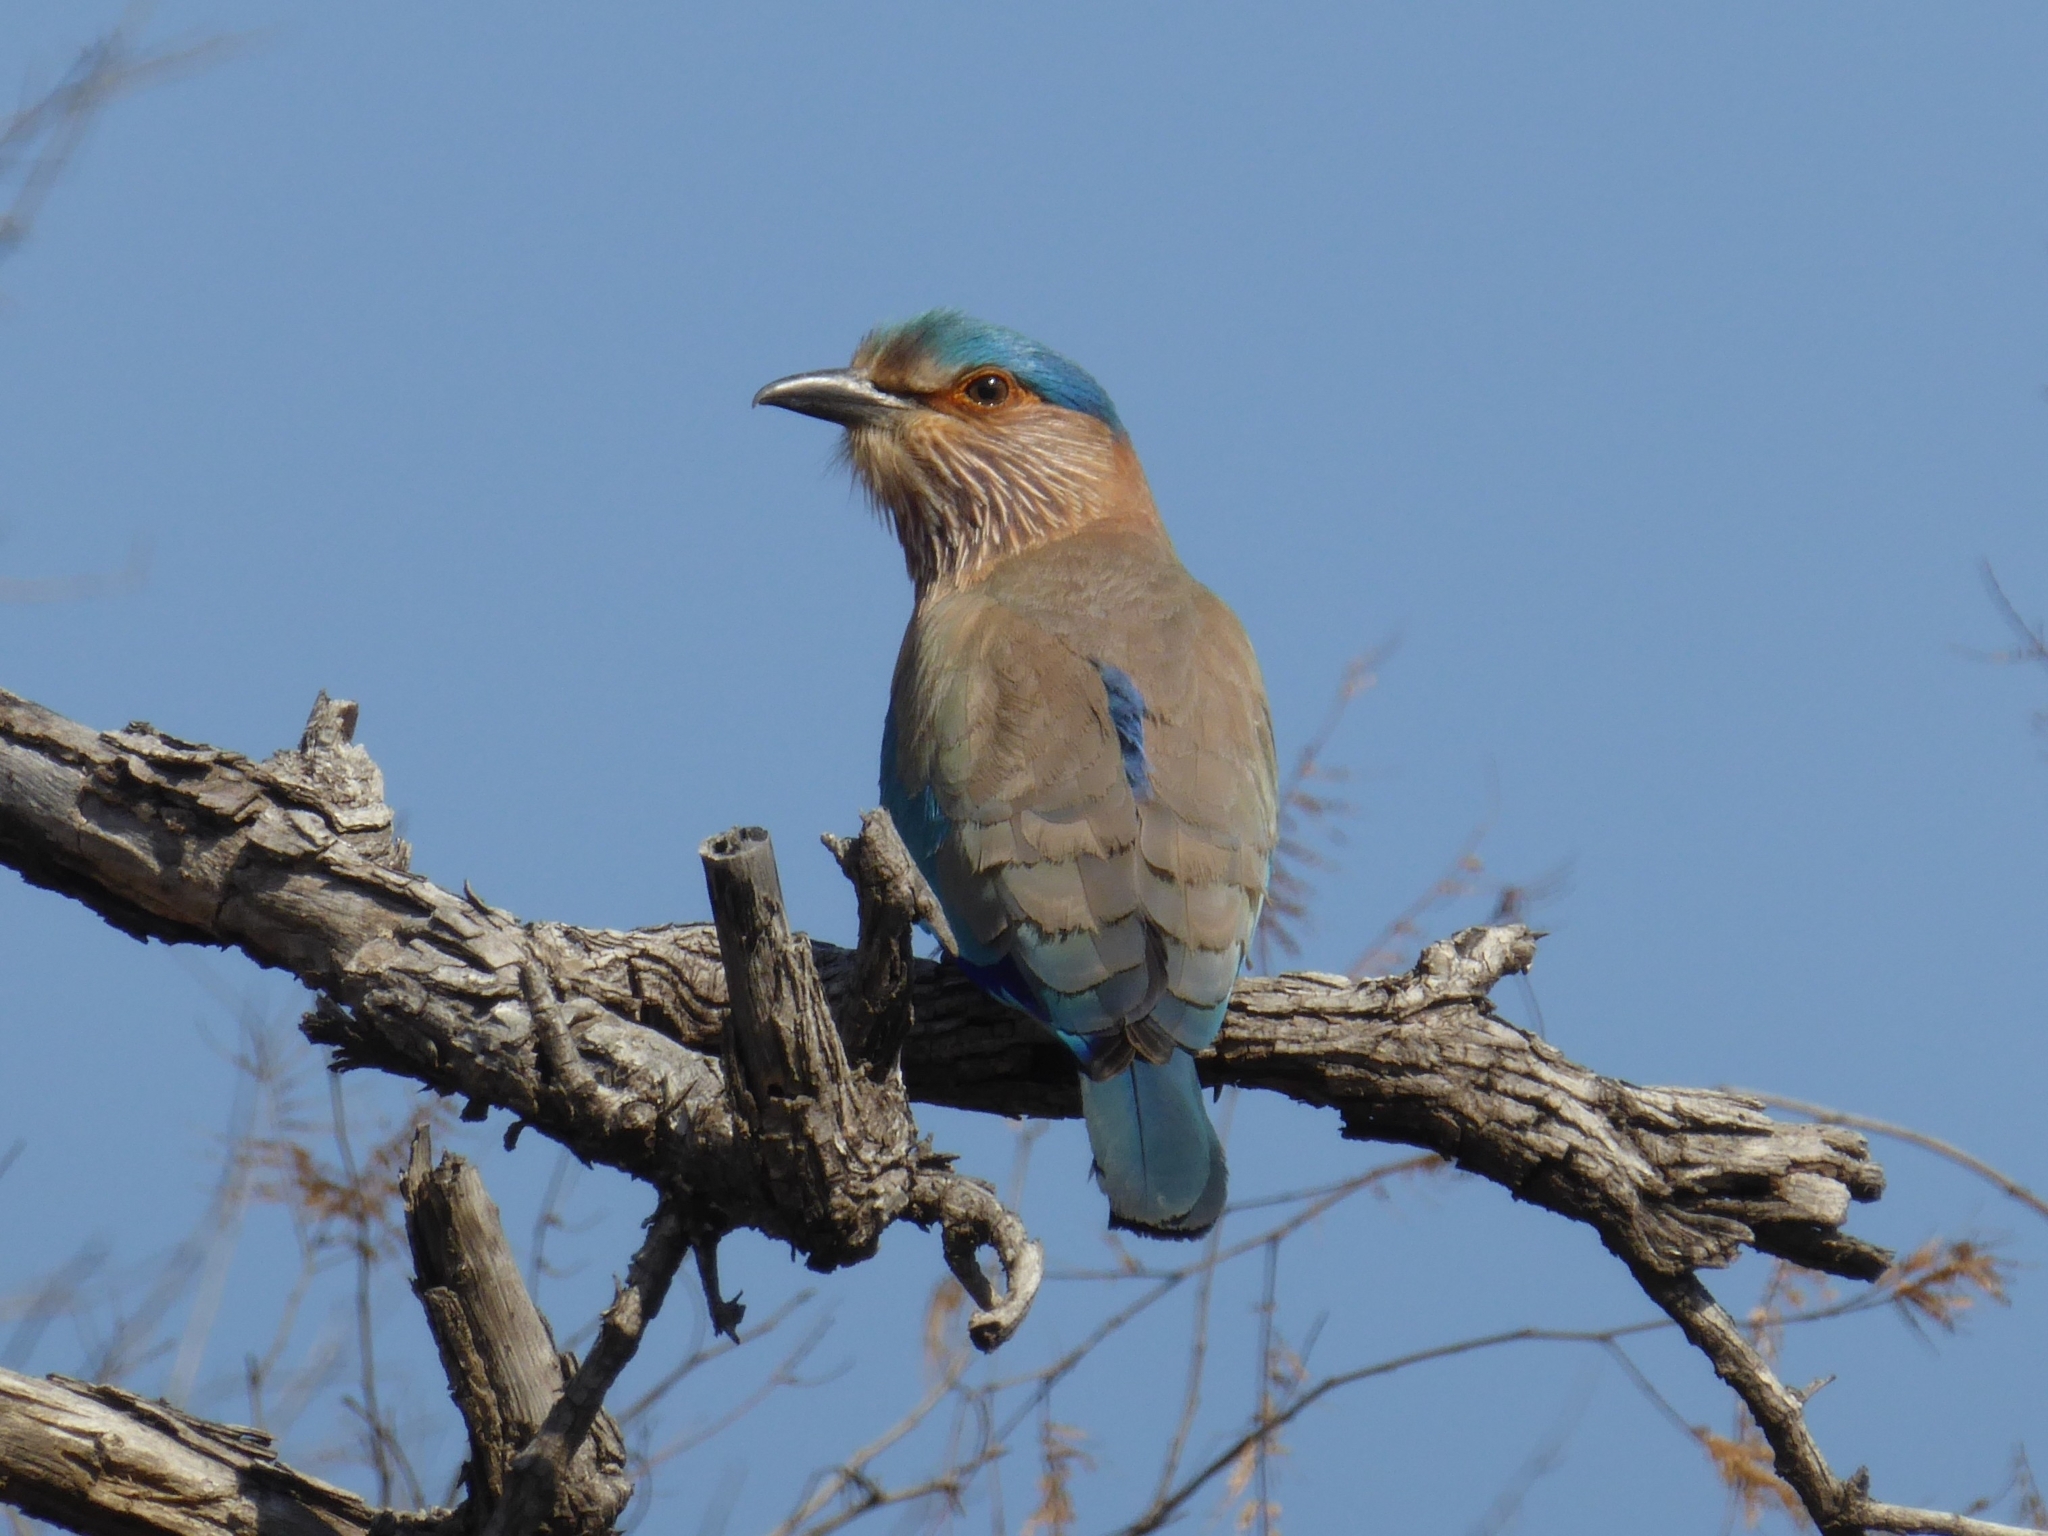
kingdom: Animalia
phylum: Chordata
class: Aves
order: Coraciiformes
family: Coraciidae
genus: Coracias
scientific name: Coracias benghalensis
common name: Indian roller
